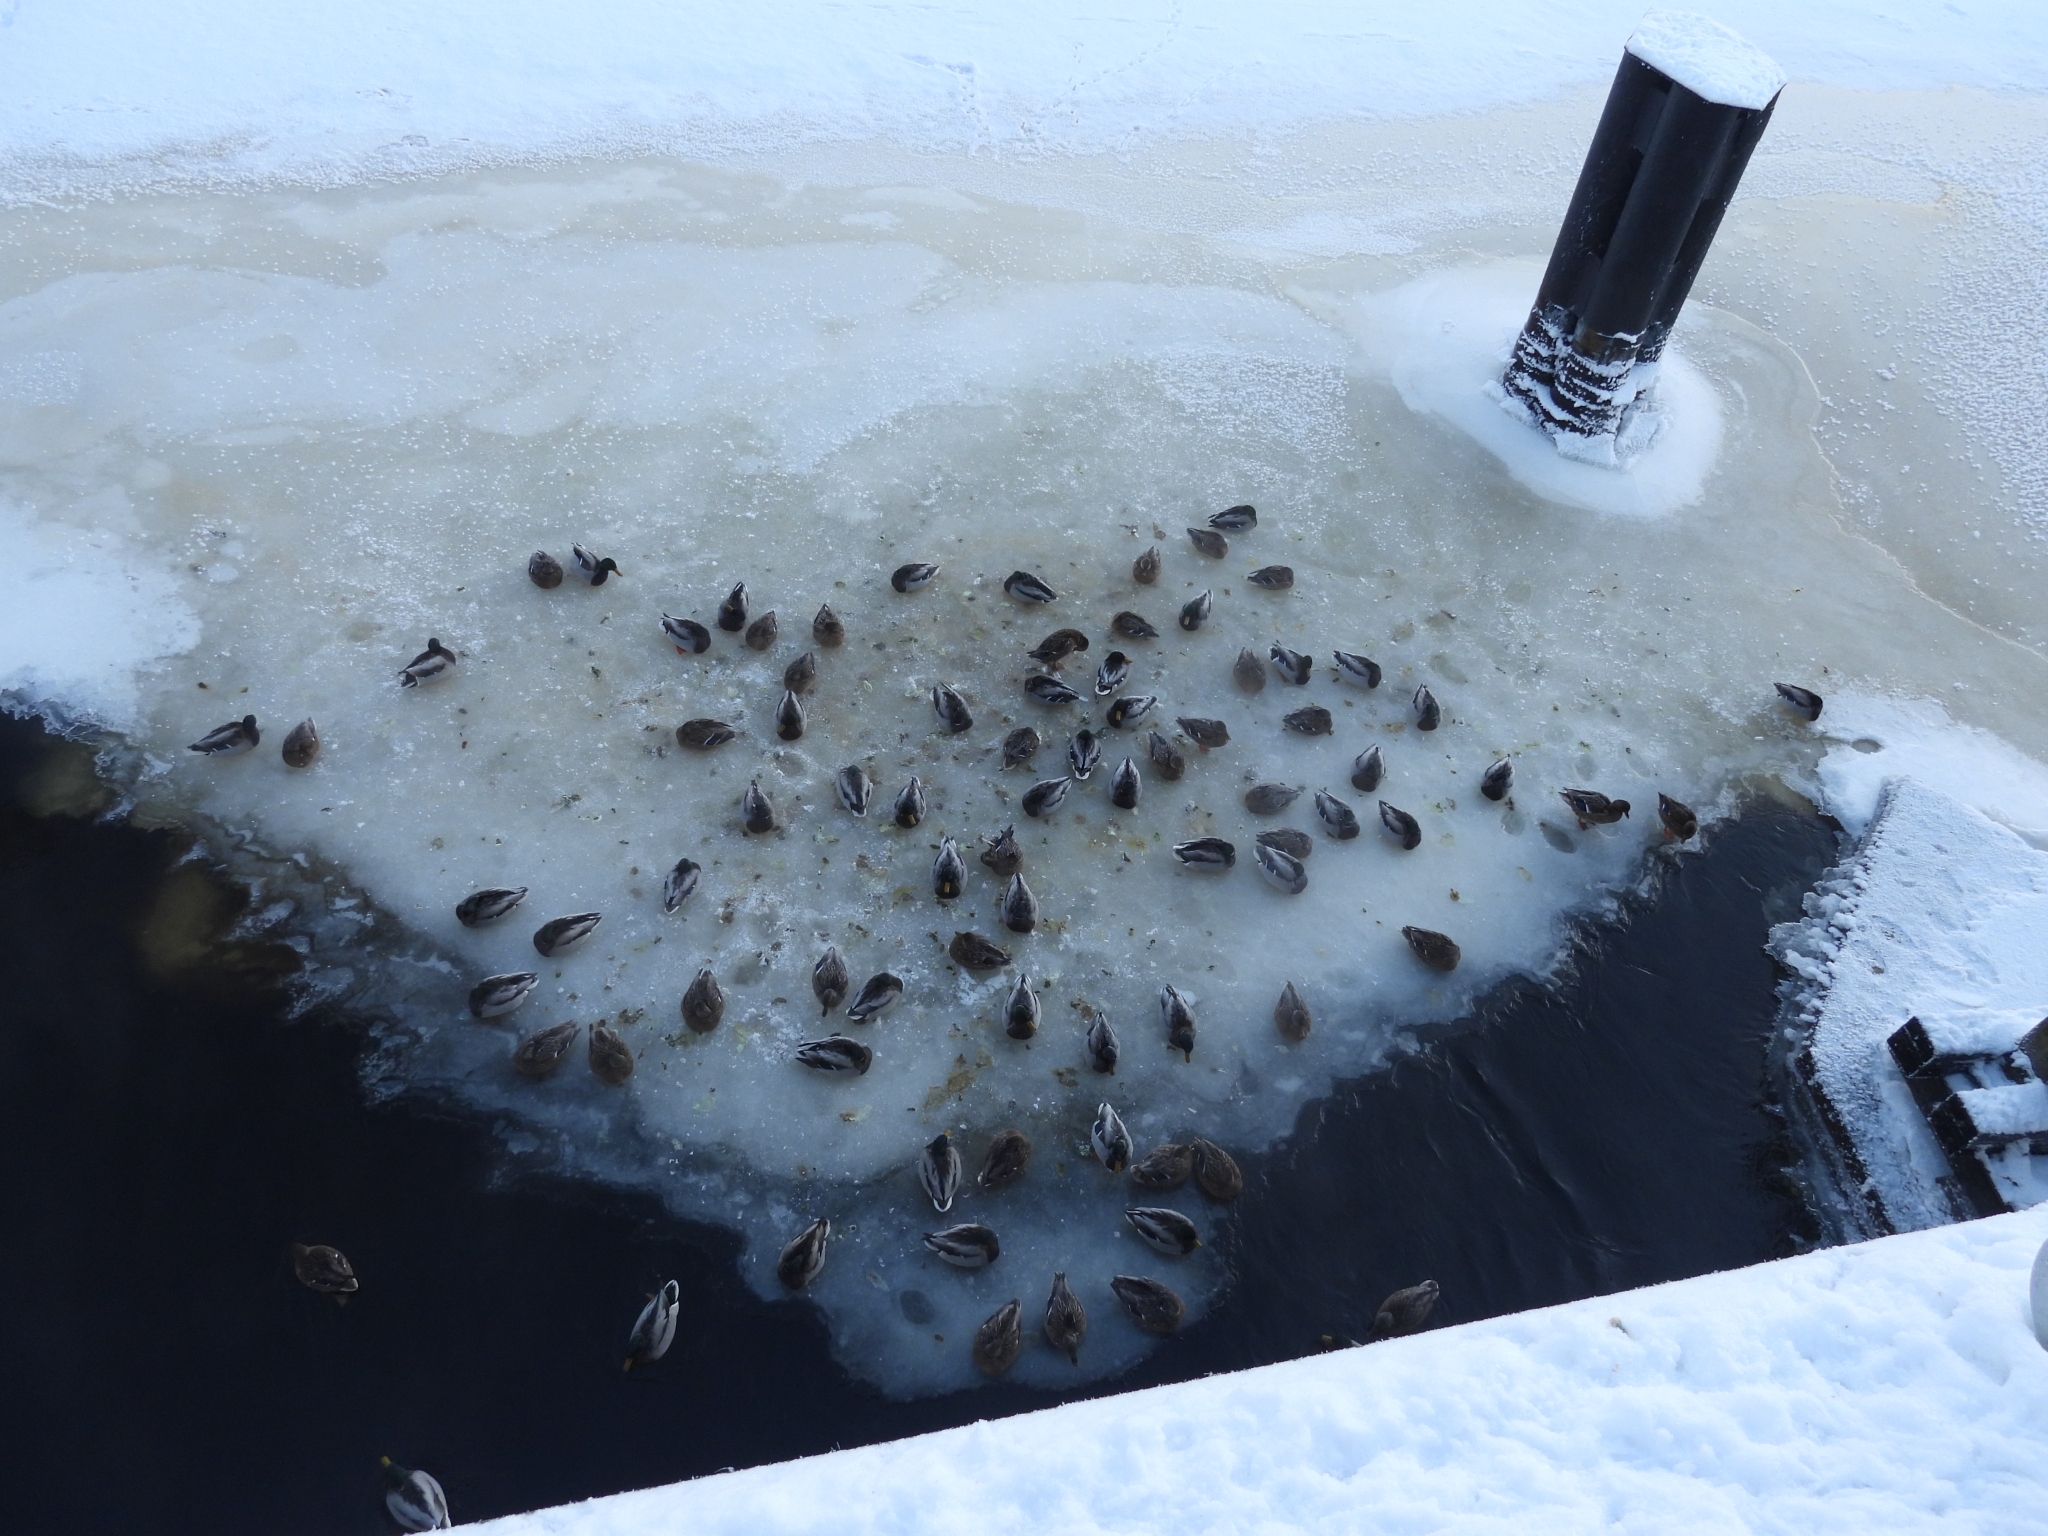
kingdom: Animalia
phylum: Chordata
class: Aves
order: Anseriformes
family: Anatidae
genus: Anas
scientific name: Anas platyrhynchos
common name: Mallard
